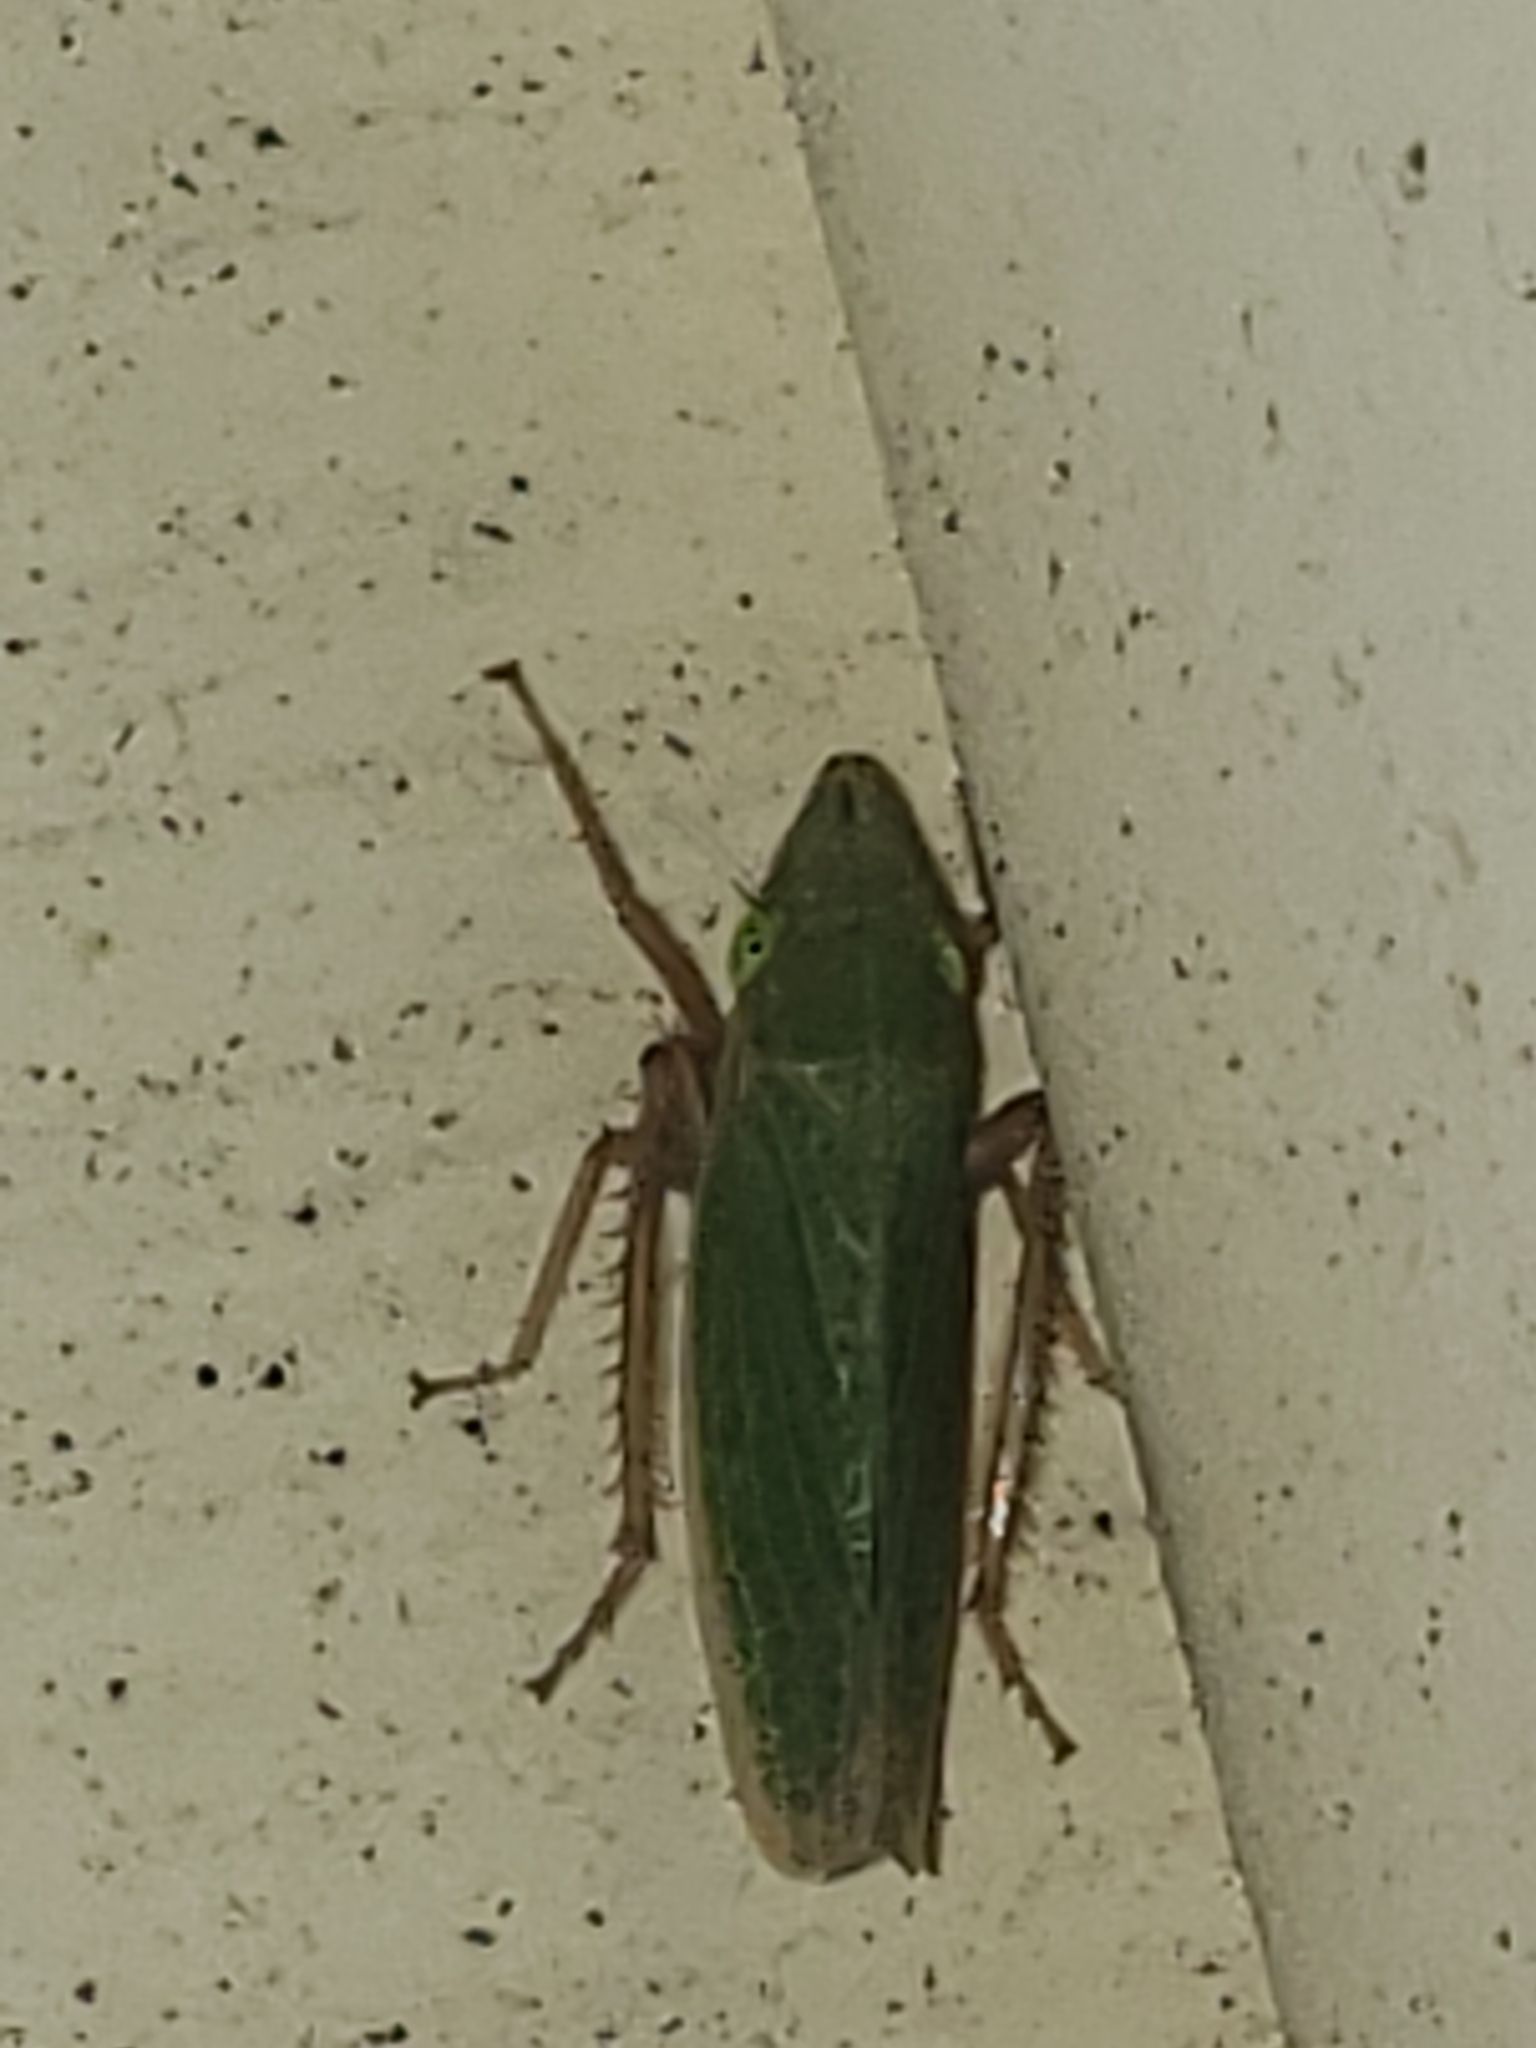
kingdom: Animalia
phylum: Arthropoda
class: Insecta
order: Hemiptera
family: Cicadellidae
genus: Draeculacephala
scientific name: Draeculacephala antica
